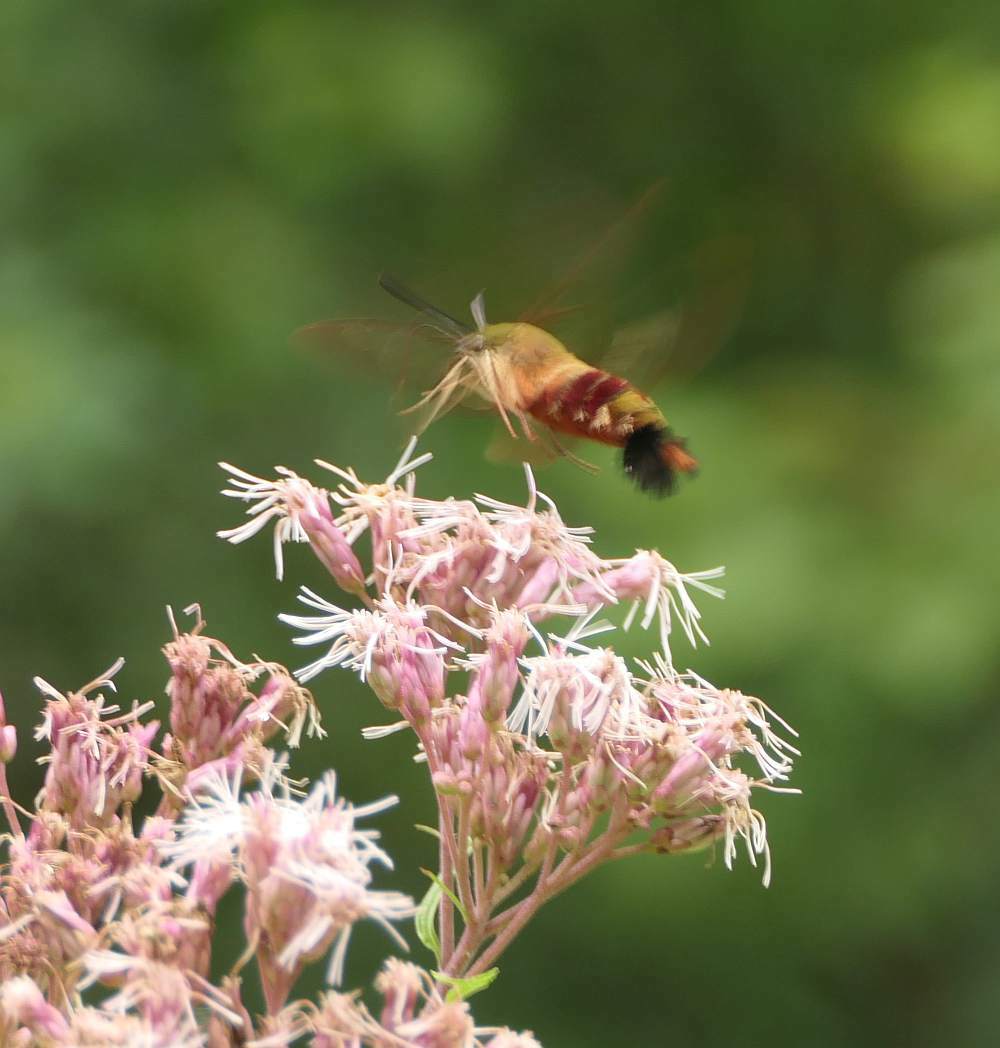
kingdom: Animalia
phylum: Arthropoda
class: Insecta
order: Lepidoptera
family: Sphingidae
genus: Hemaris
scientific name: Hemaris thysbe
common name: Common clear-wing
